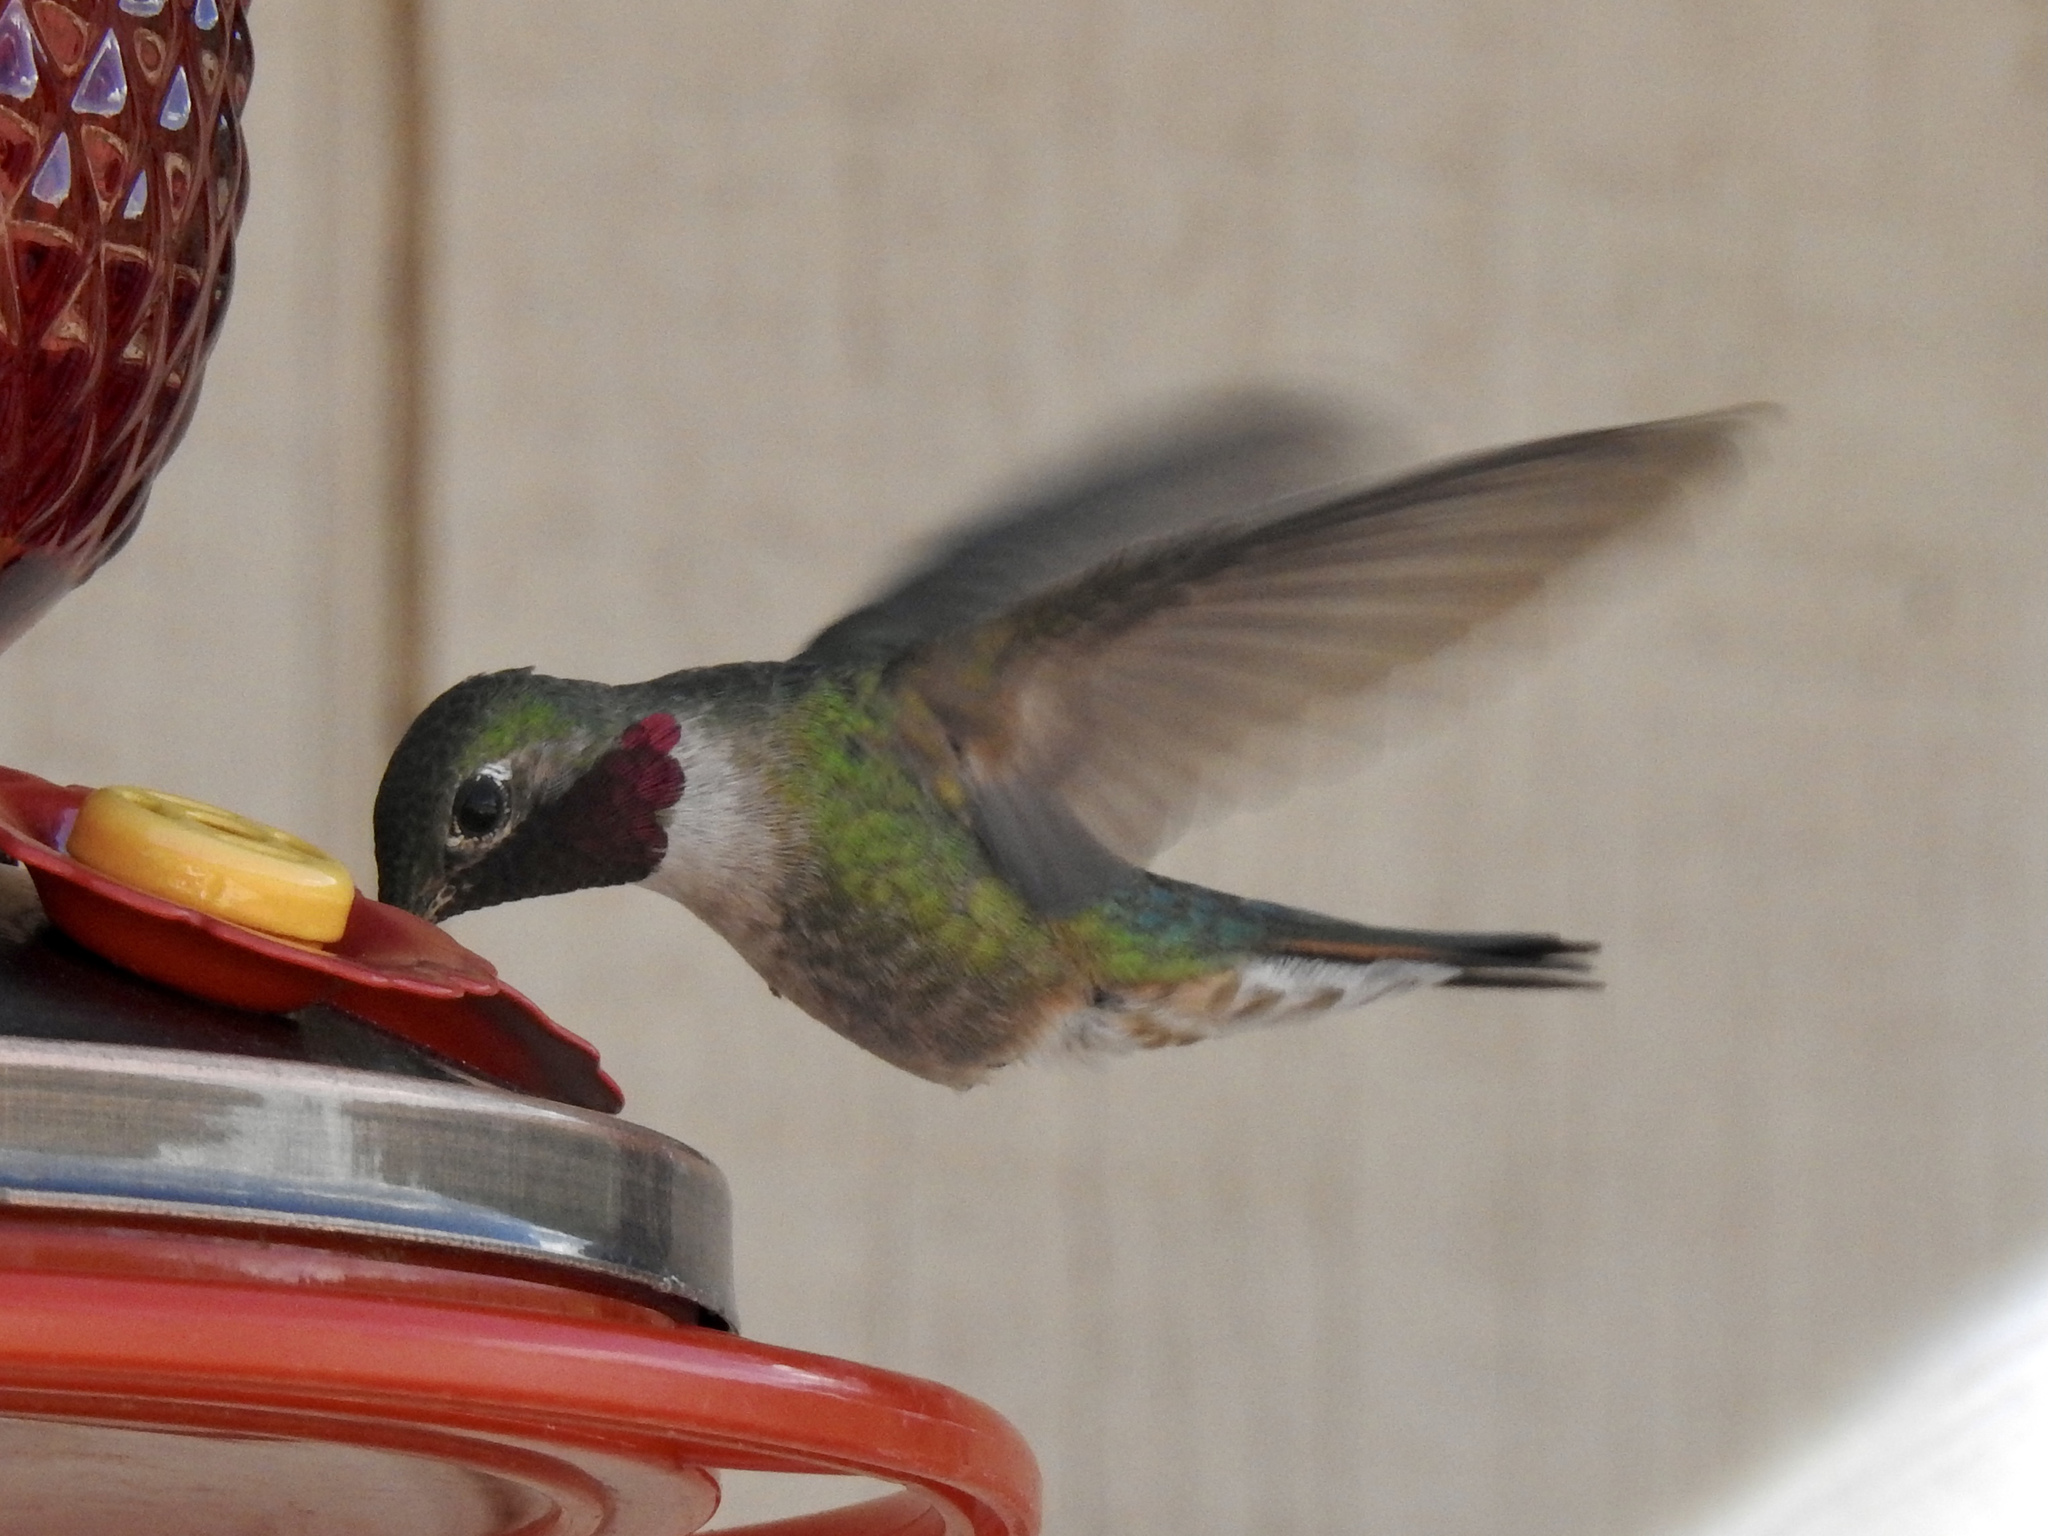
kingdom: Animalia
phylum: Chordata
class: Aves
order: Apodiformes
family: Trochilidae
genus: Selasphorus
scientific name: Selasphorus platycercus
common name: Broad-tailed hummingbird
